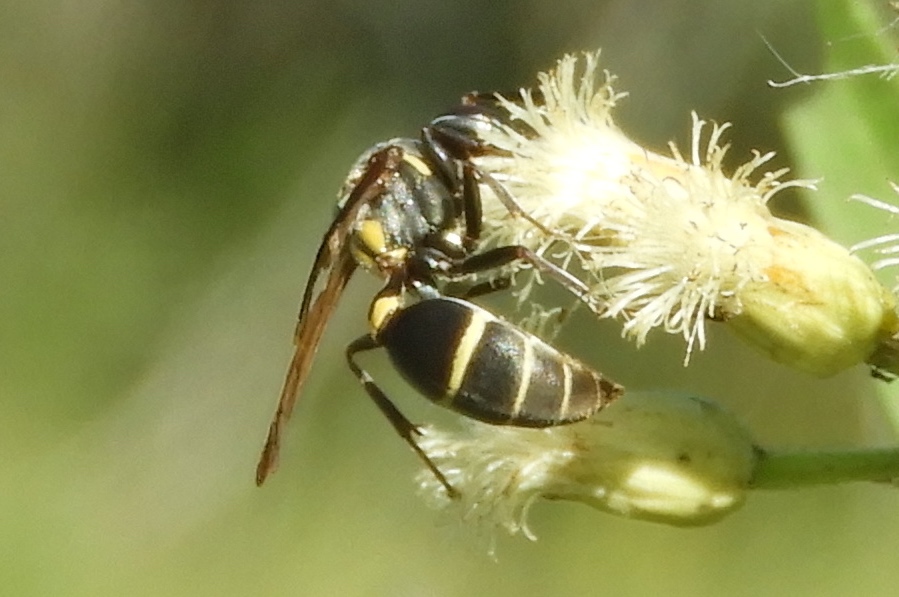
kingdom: Animalia
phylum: Arthropoda
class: Insecta
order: Hymenoptera
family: Vespidae
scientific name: Vespidae
